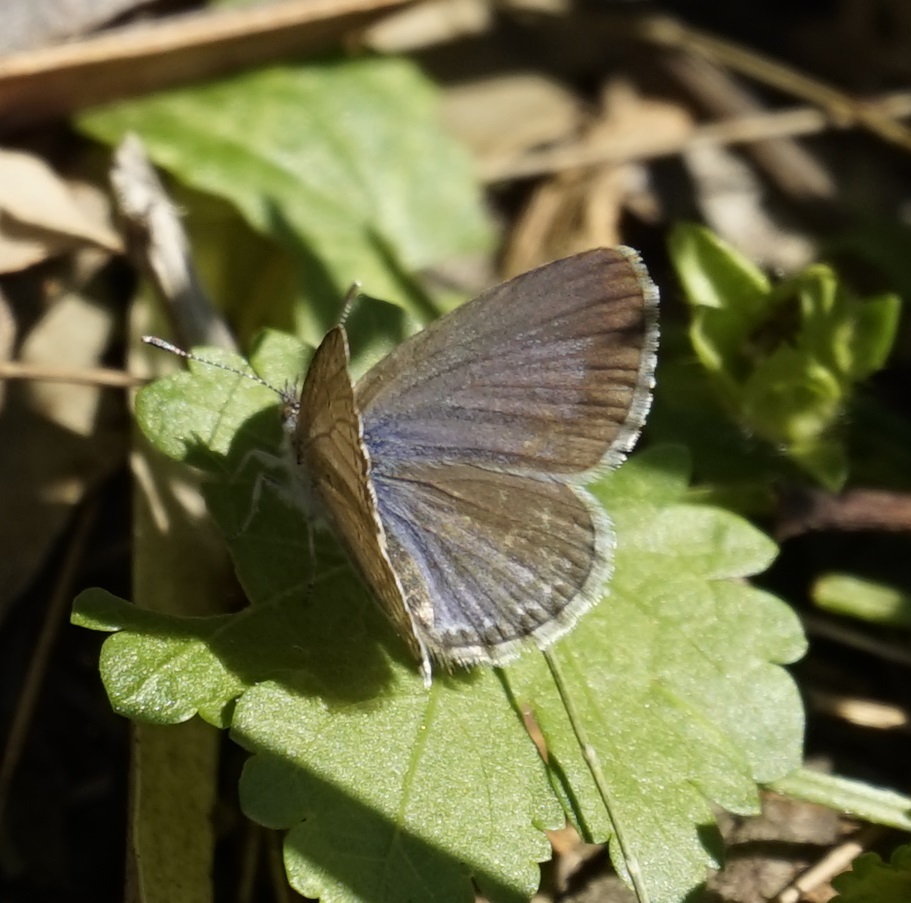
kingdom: Animalia
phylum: Arthropoda
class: Insecta
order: Lepidoptera
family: Lycaenidae
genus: Zizina
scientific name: Zizina labradus
